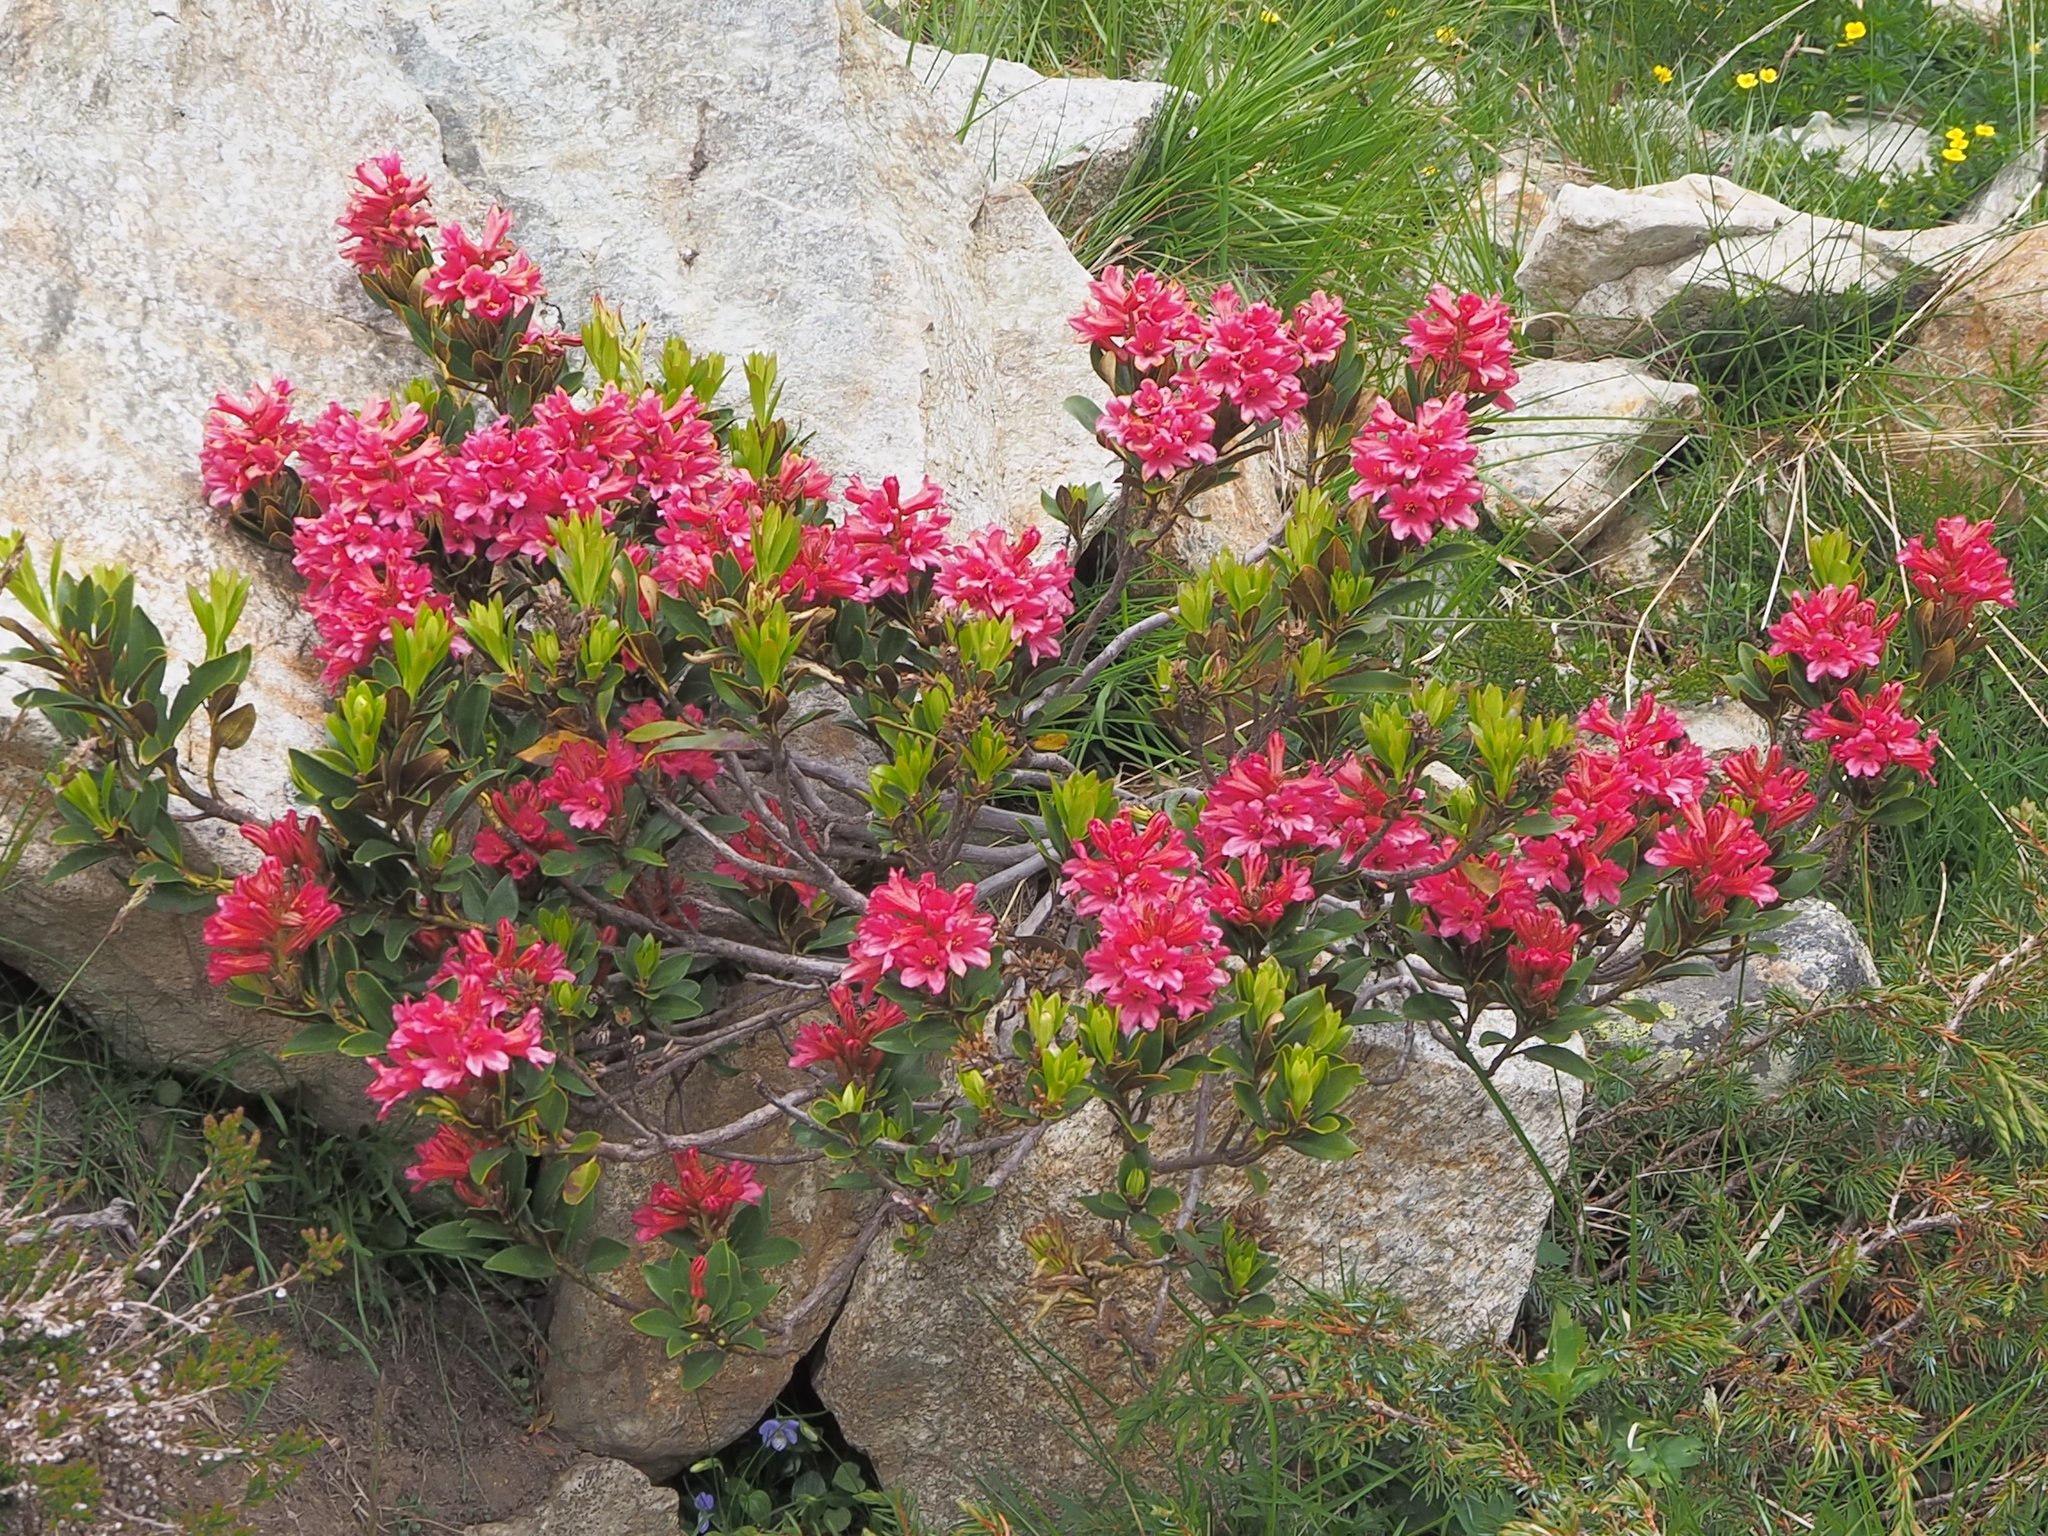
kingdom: Plantae
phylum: Tracheophyta
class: Magnoliopsida
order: Ericales
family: Ericaceae
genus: Rhododendron
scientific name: Rhododendron ferrugineum
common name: Alpenrose
